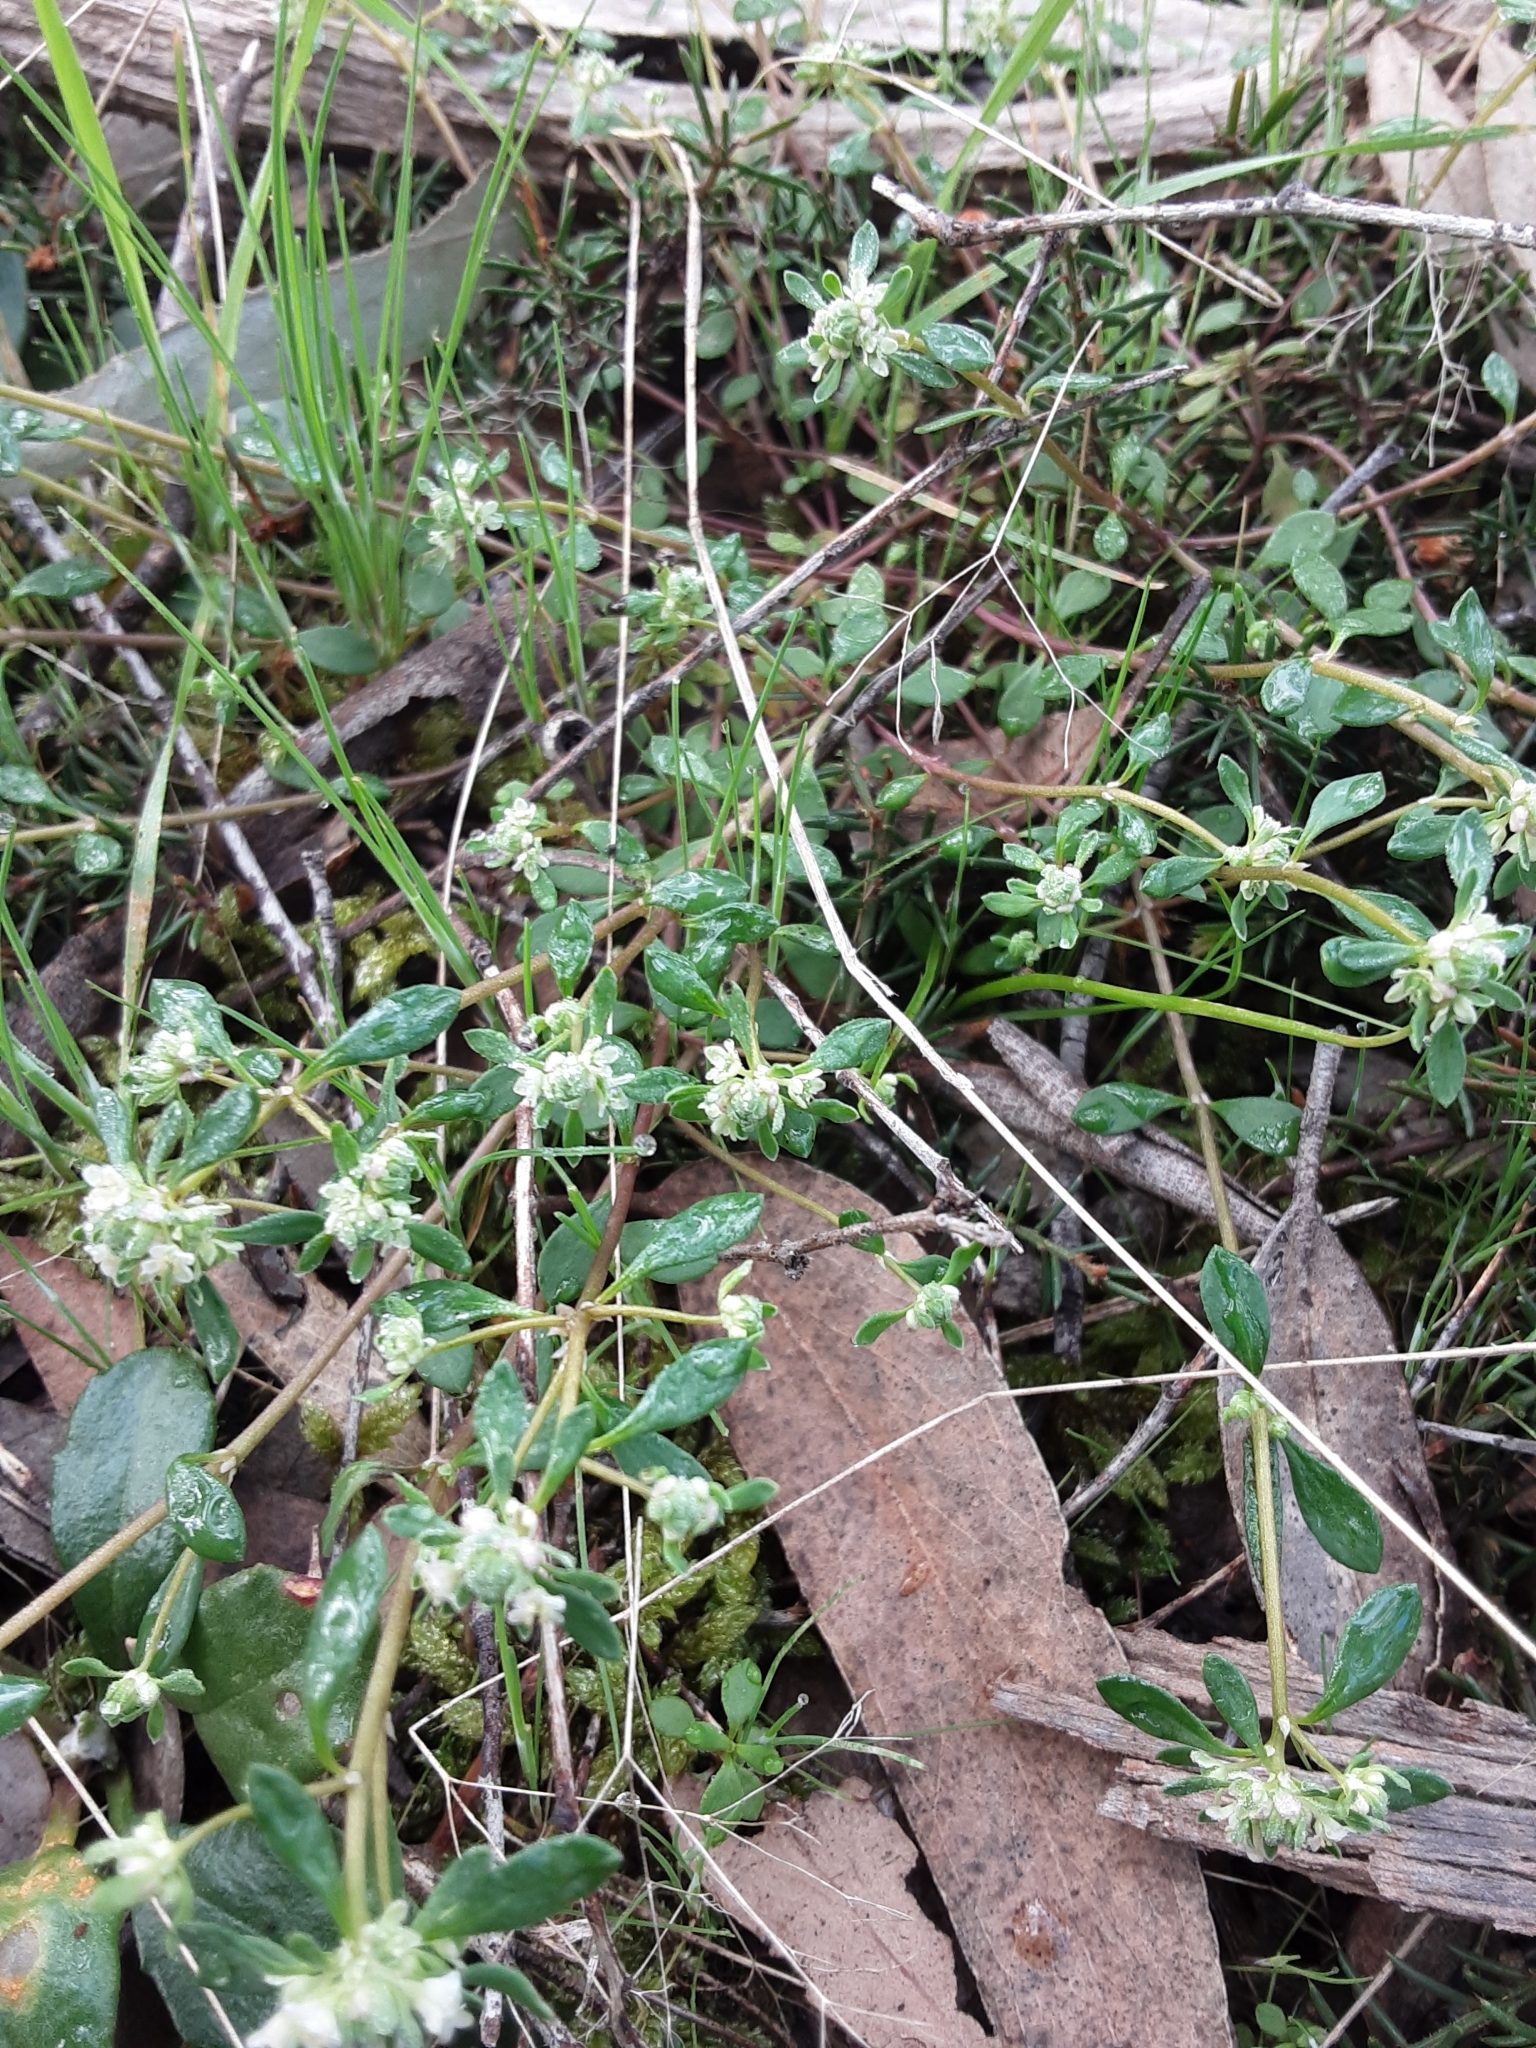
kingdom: Plantae
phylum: Tracheophyta
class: Magnoliopsida
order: Malpighiales
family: Phyllanthaceae
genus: Poranthera
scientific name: Poranthera microphylla
